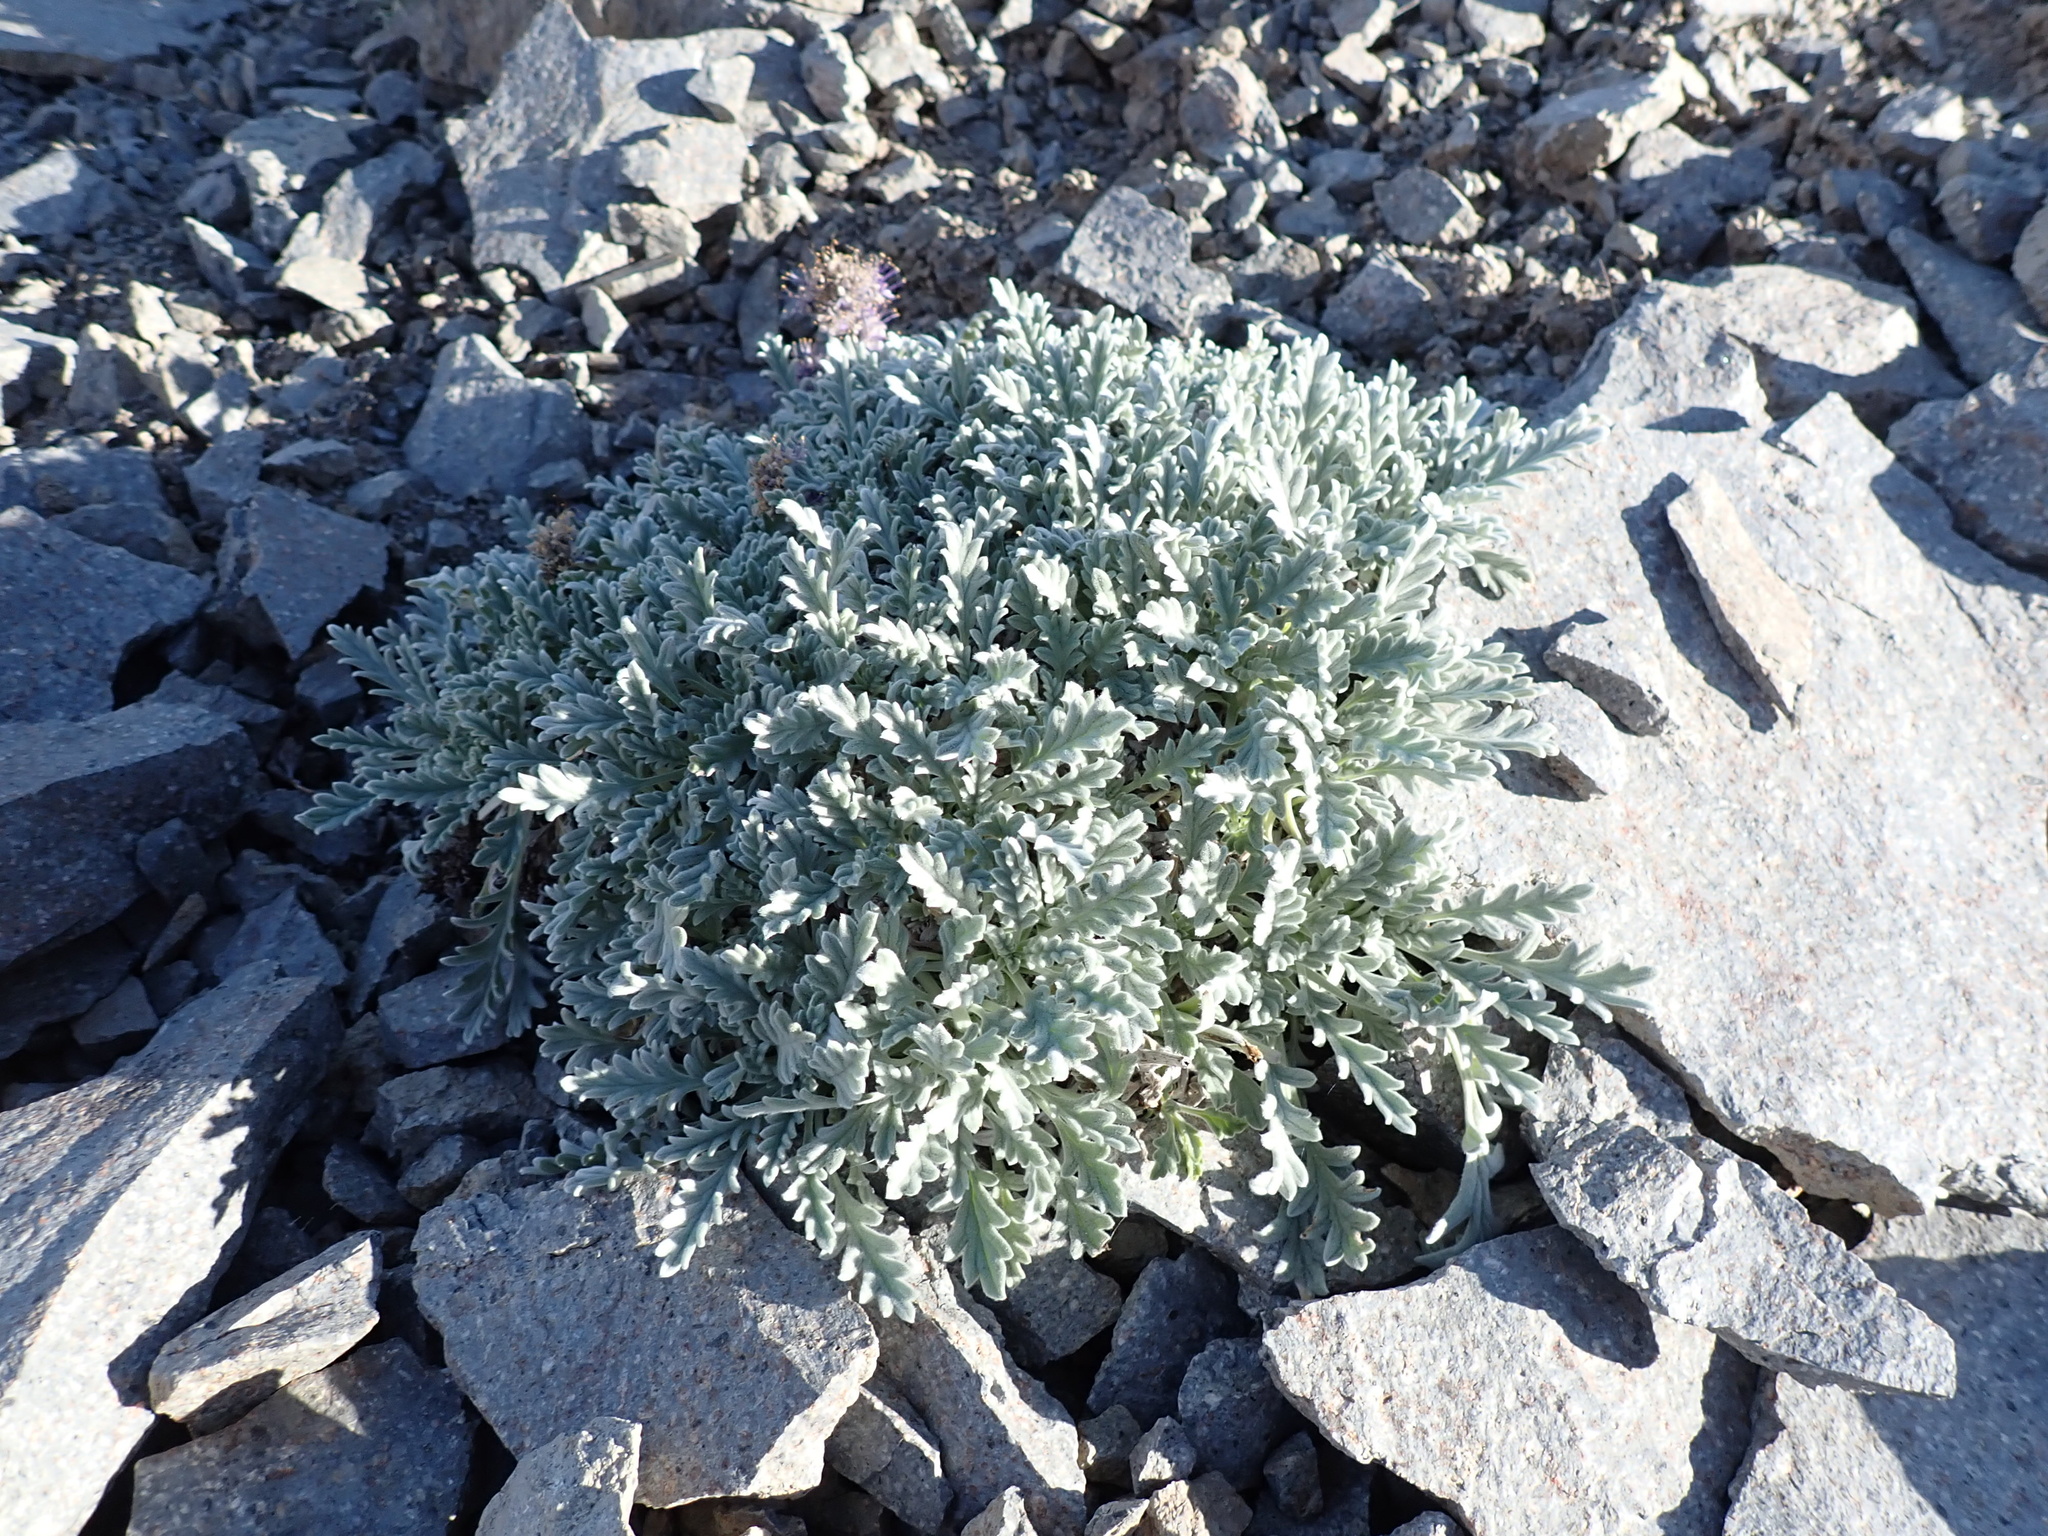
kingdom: Plantae
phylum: Tracheophyta
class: Magnoliopsida
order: Boraginales
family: Hydrophyllaceae
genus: Phacelia
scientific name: Phacelia sericea
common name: Silky phacelia
